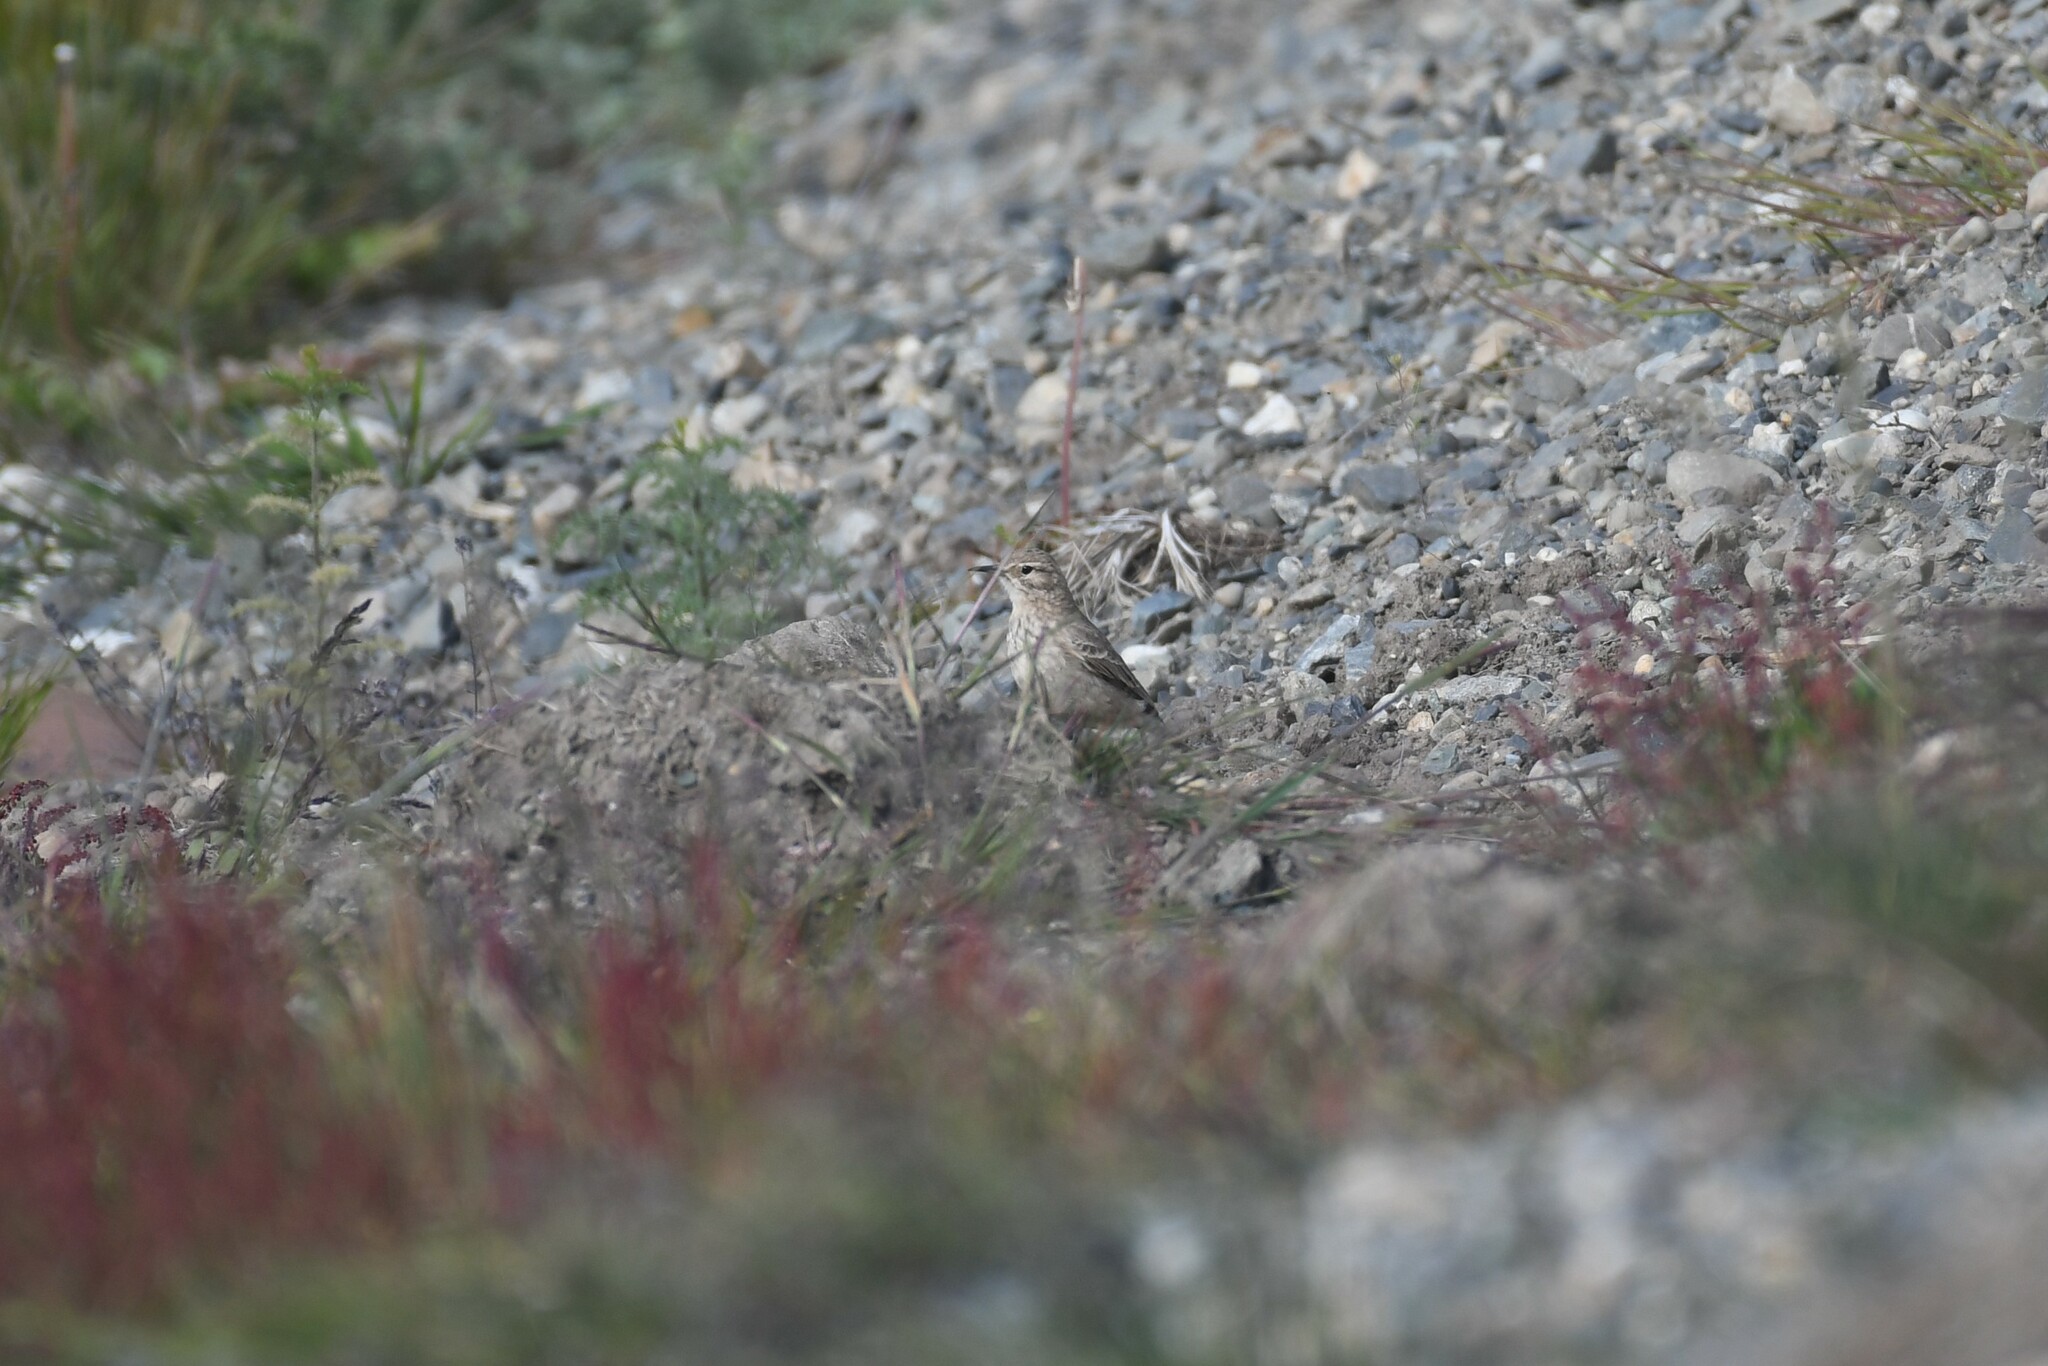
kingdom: Animalia
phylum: Chordata
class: Aves
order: Passeriformes
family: Furnariidae
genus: Geositta
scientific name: Geositta cunicularia
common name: Common miner
